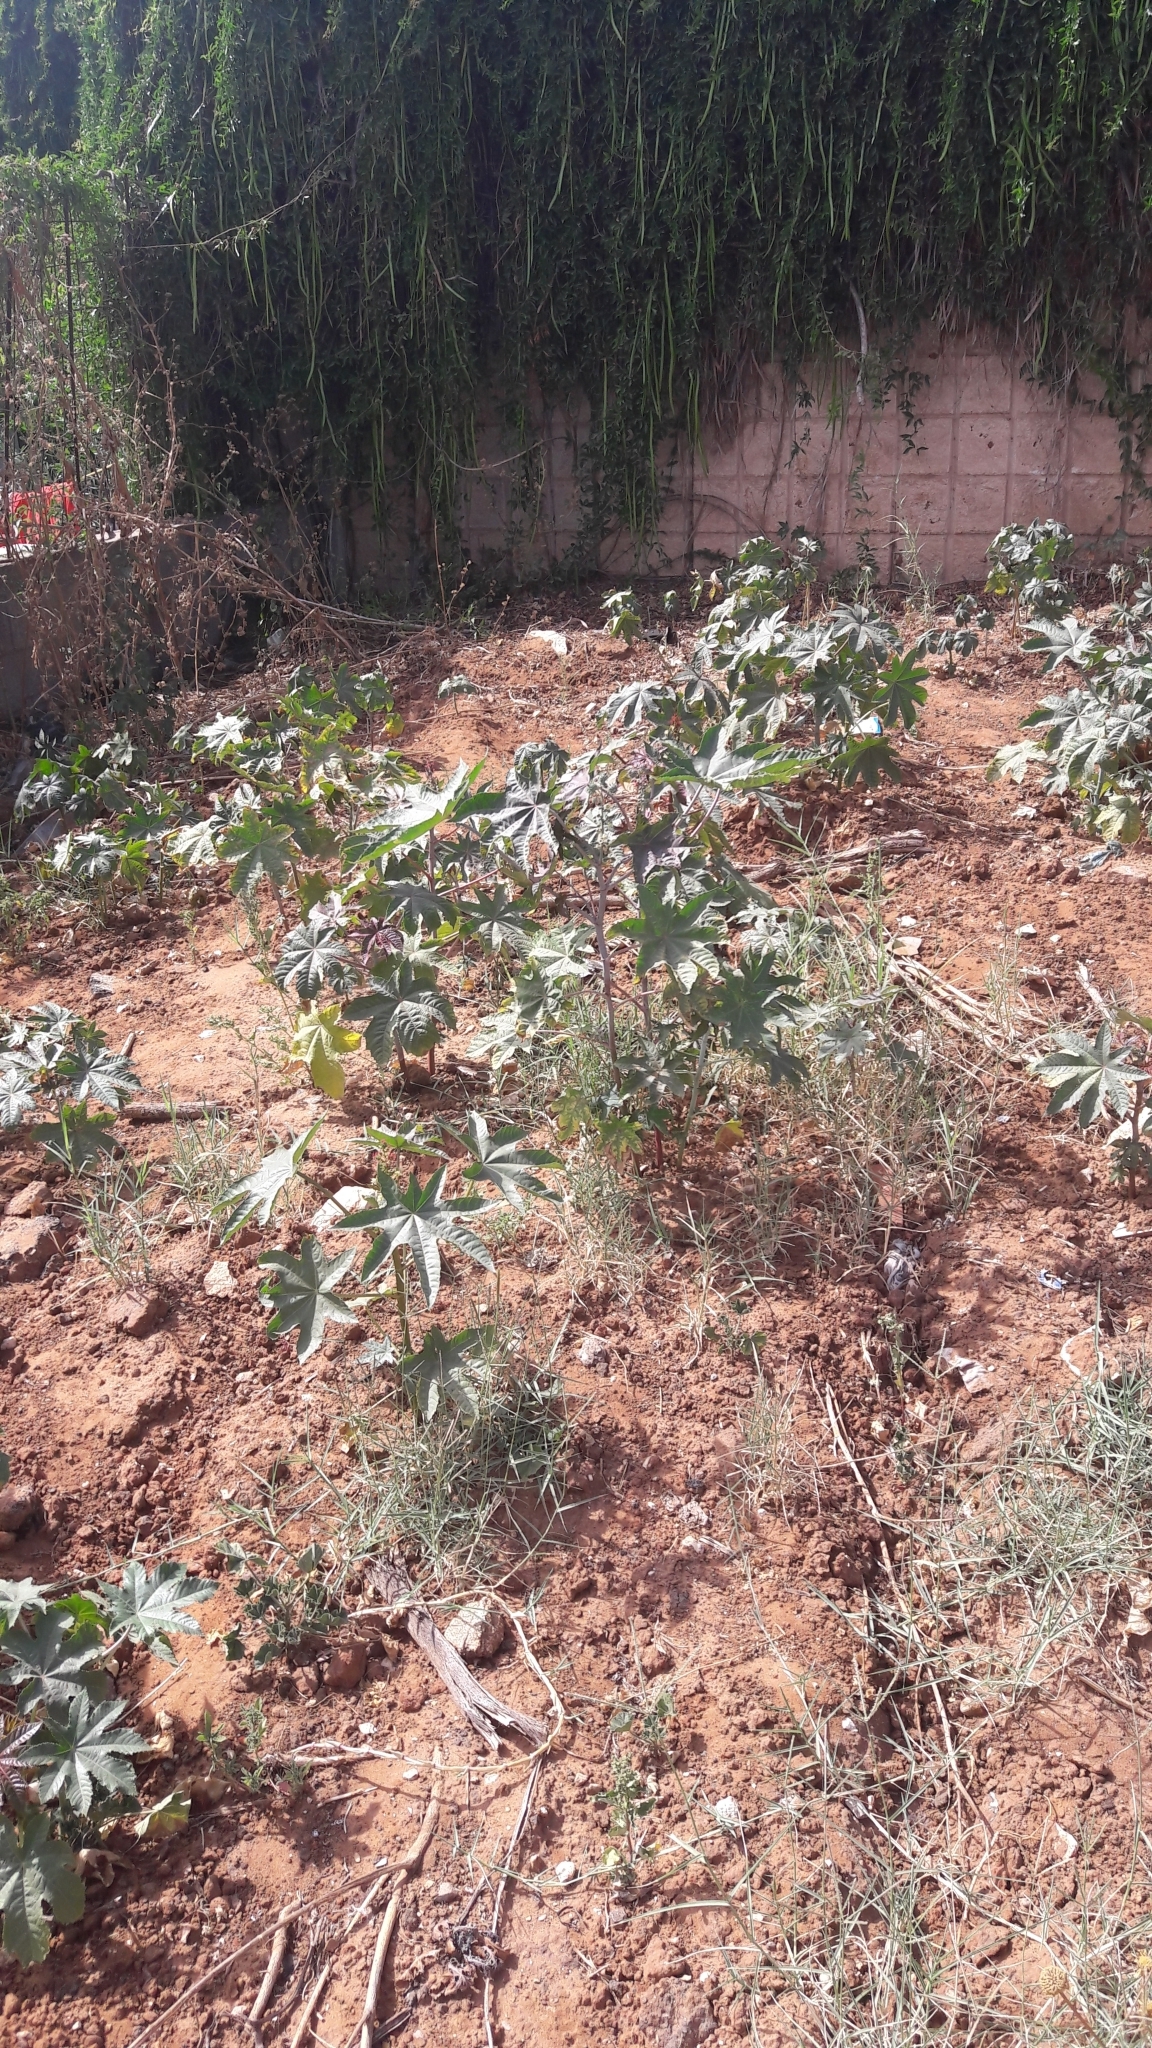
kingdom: Plantae
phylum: Tracheophyta
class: Magnoliopsida
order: Malpighiales
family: Euphorbiaceae
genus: Ricinus
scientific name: Ricinus communis
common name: Castor-oil-plant
